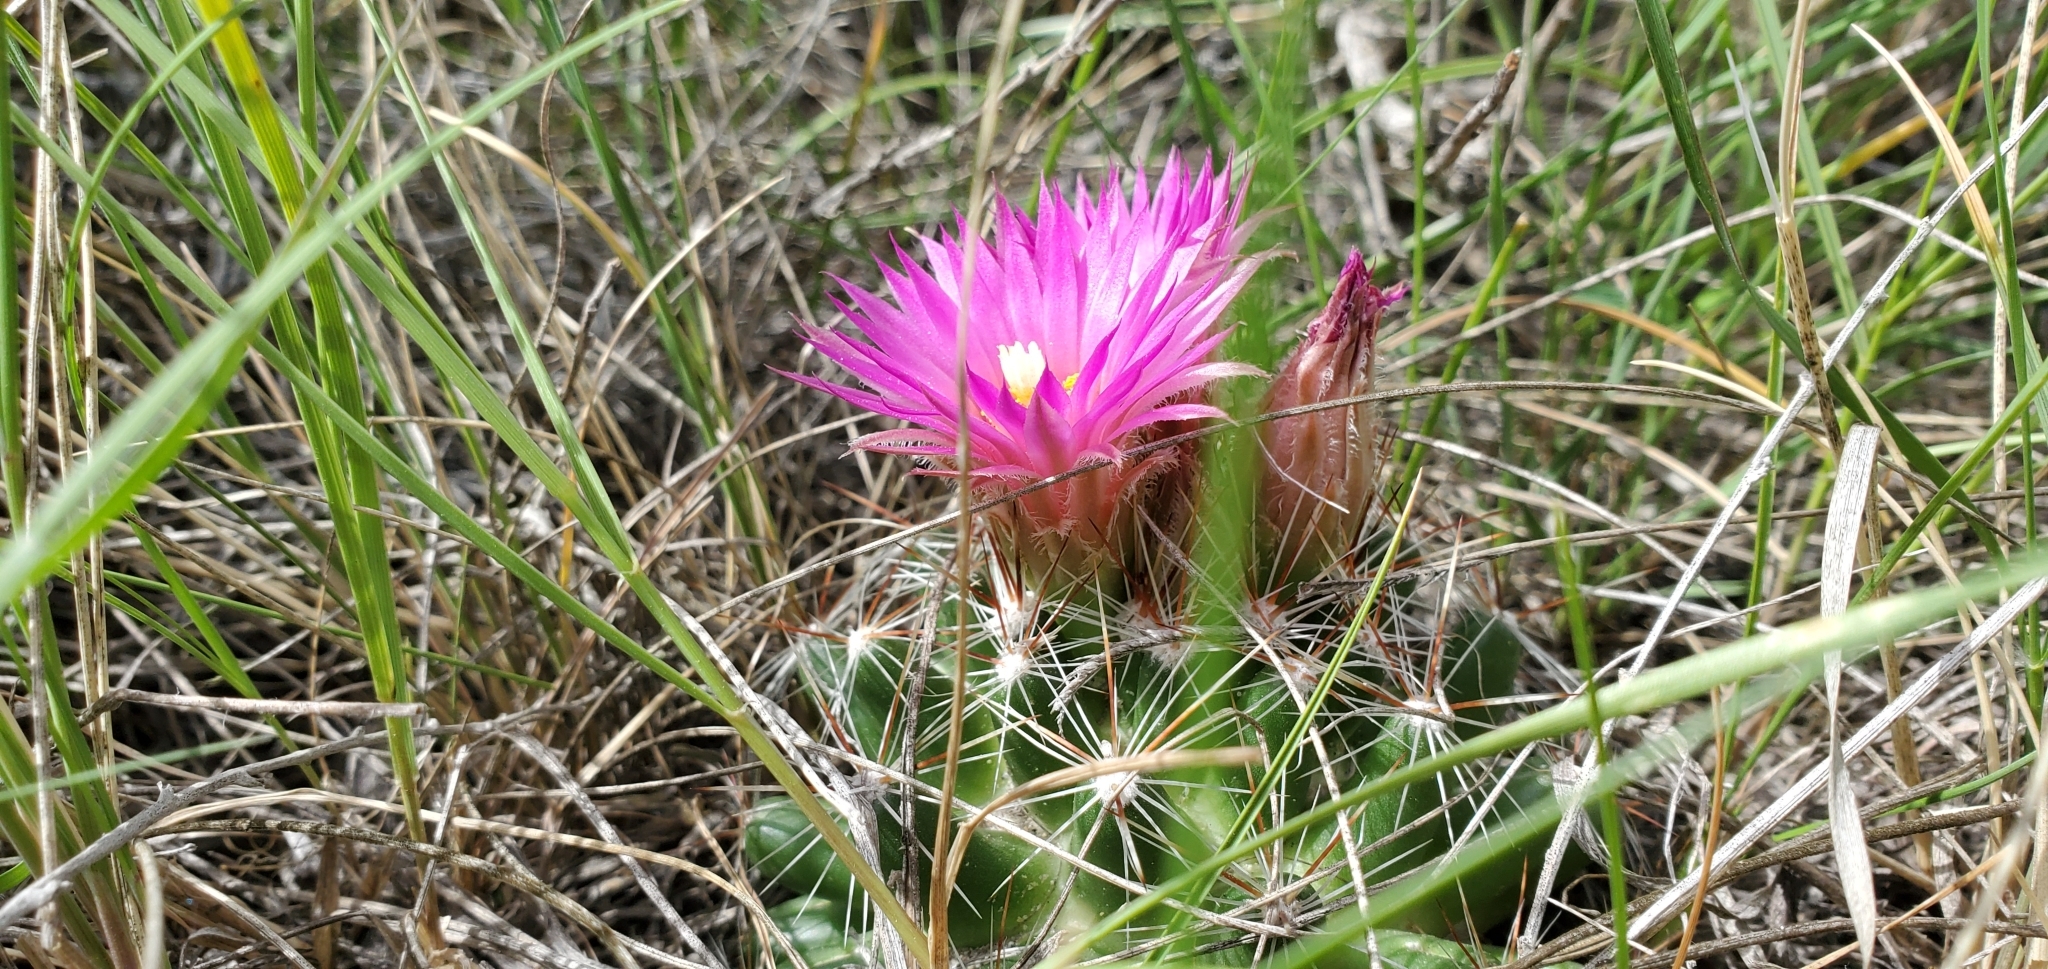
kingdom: Plantae
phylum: Tracheophyta
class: Magnoliopsida
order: Caryophyllales
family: Cactaceae
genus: Pelecyphora
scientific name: Pelecyphora vivipara
